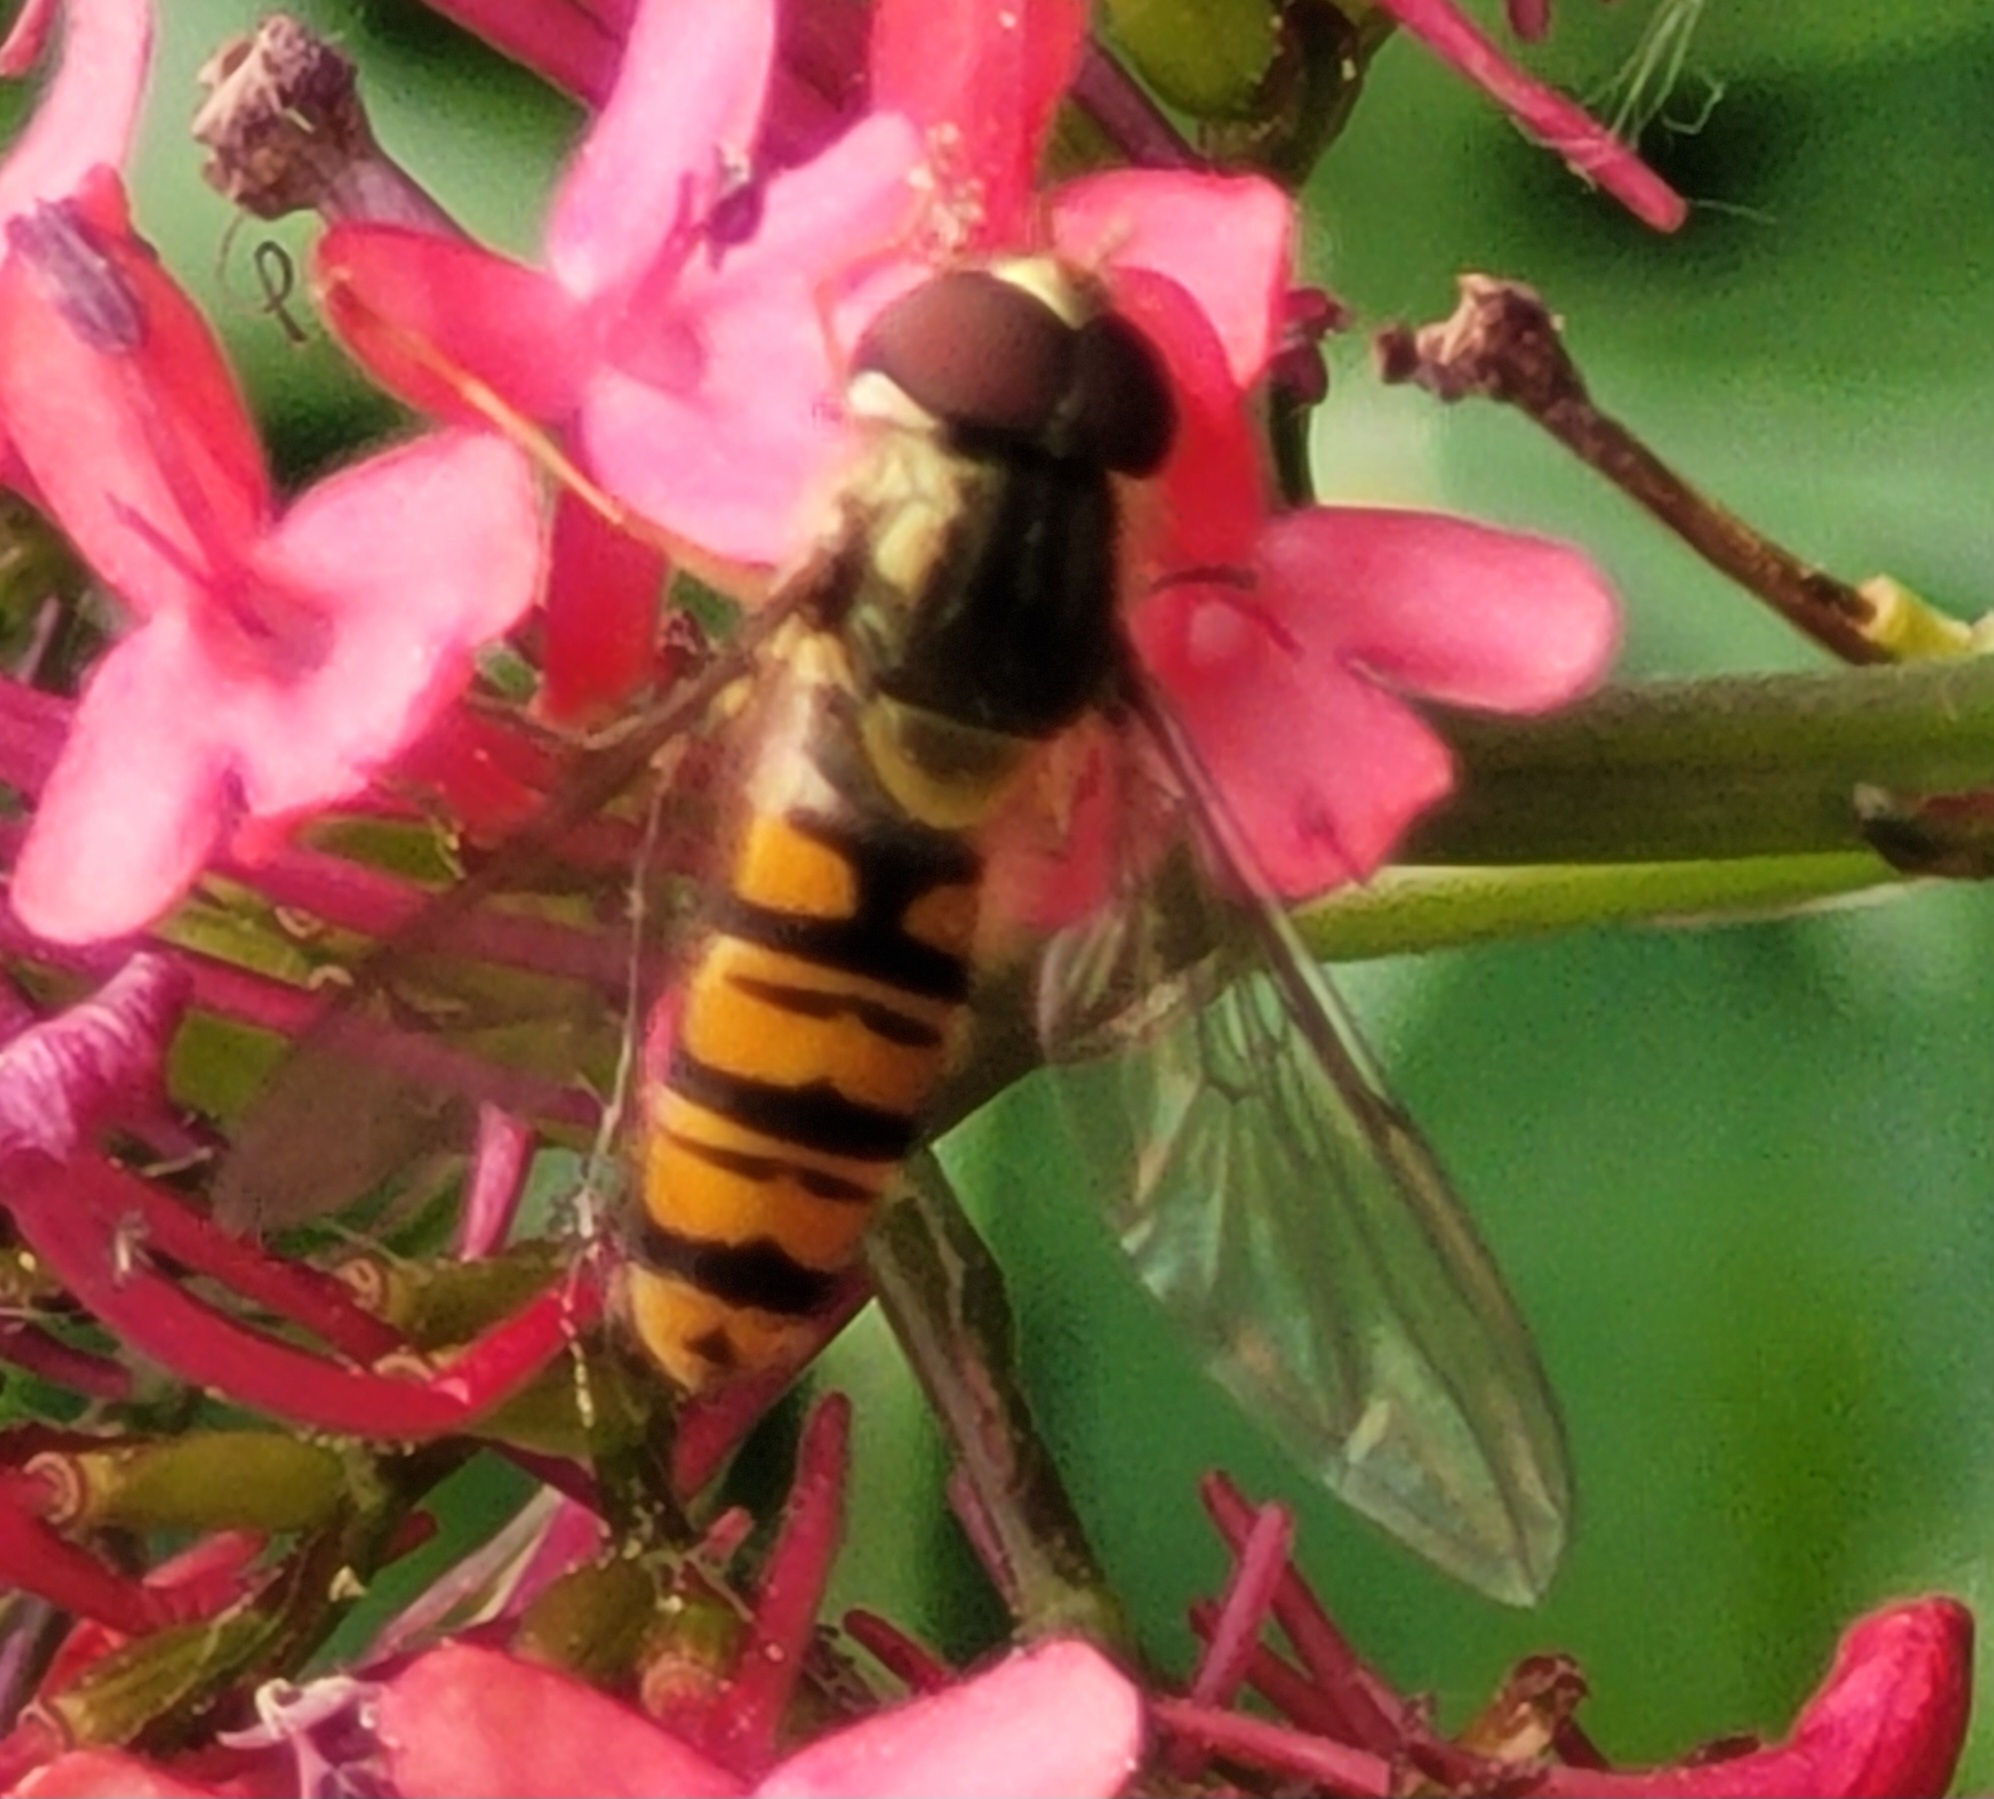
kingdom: Animalia
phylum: Arthropoda
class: Insecta
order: Diptera
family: Syrphidae
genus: Episyrphus
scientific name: Episyrphus balteatus
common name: Marmalade hoverfly
